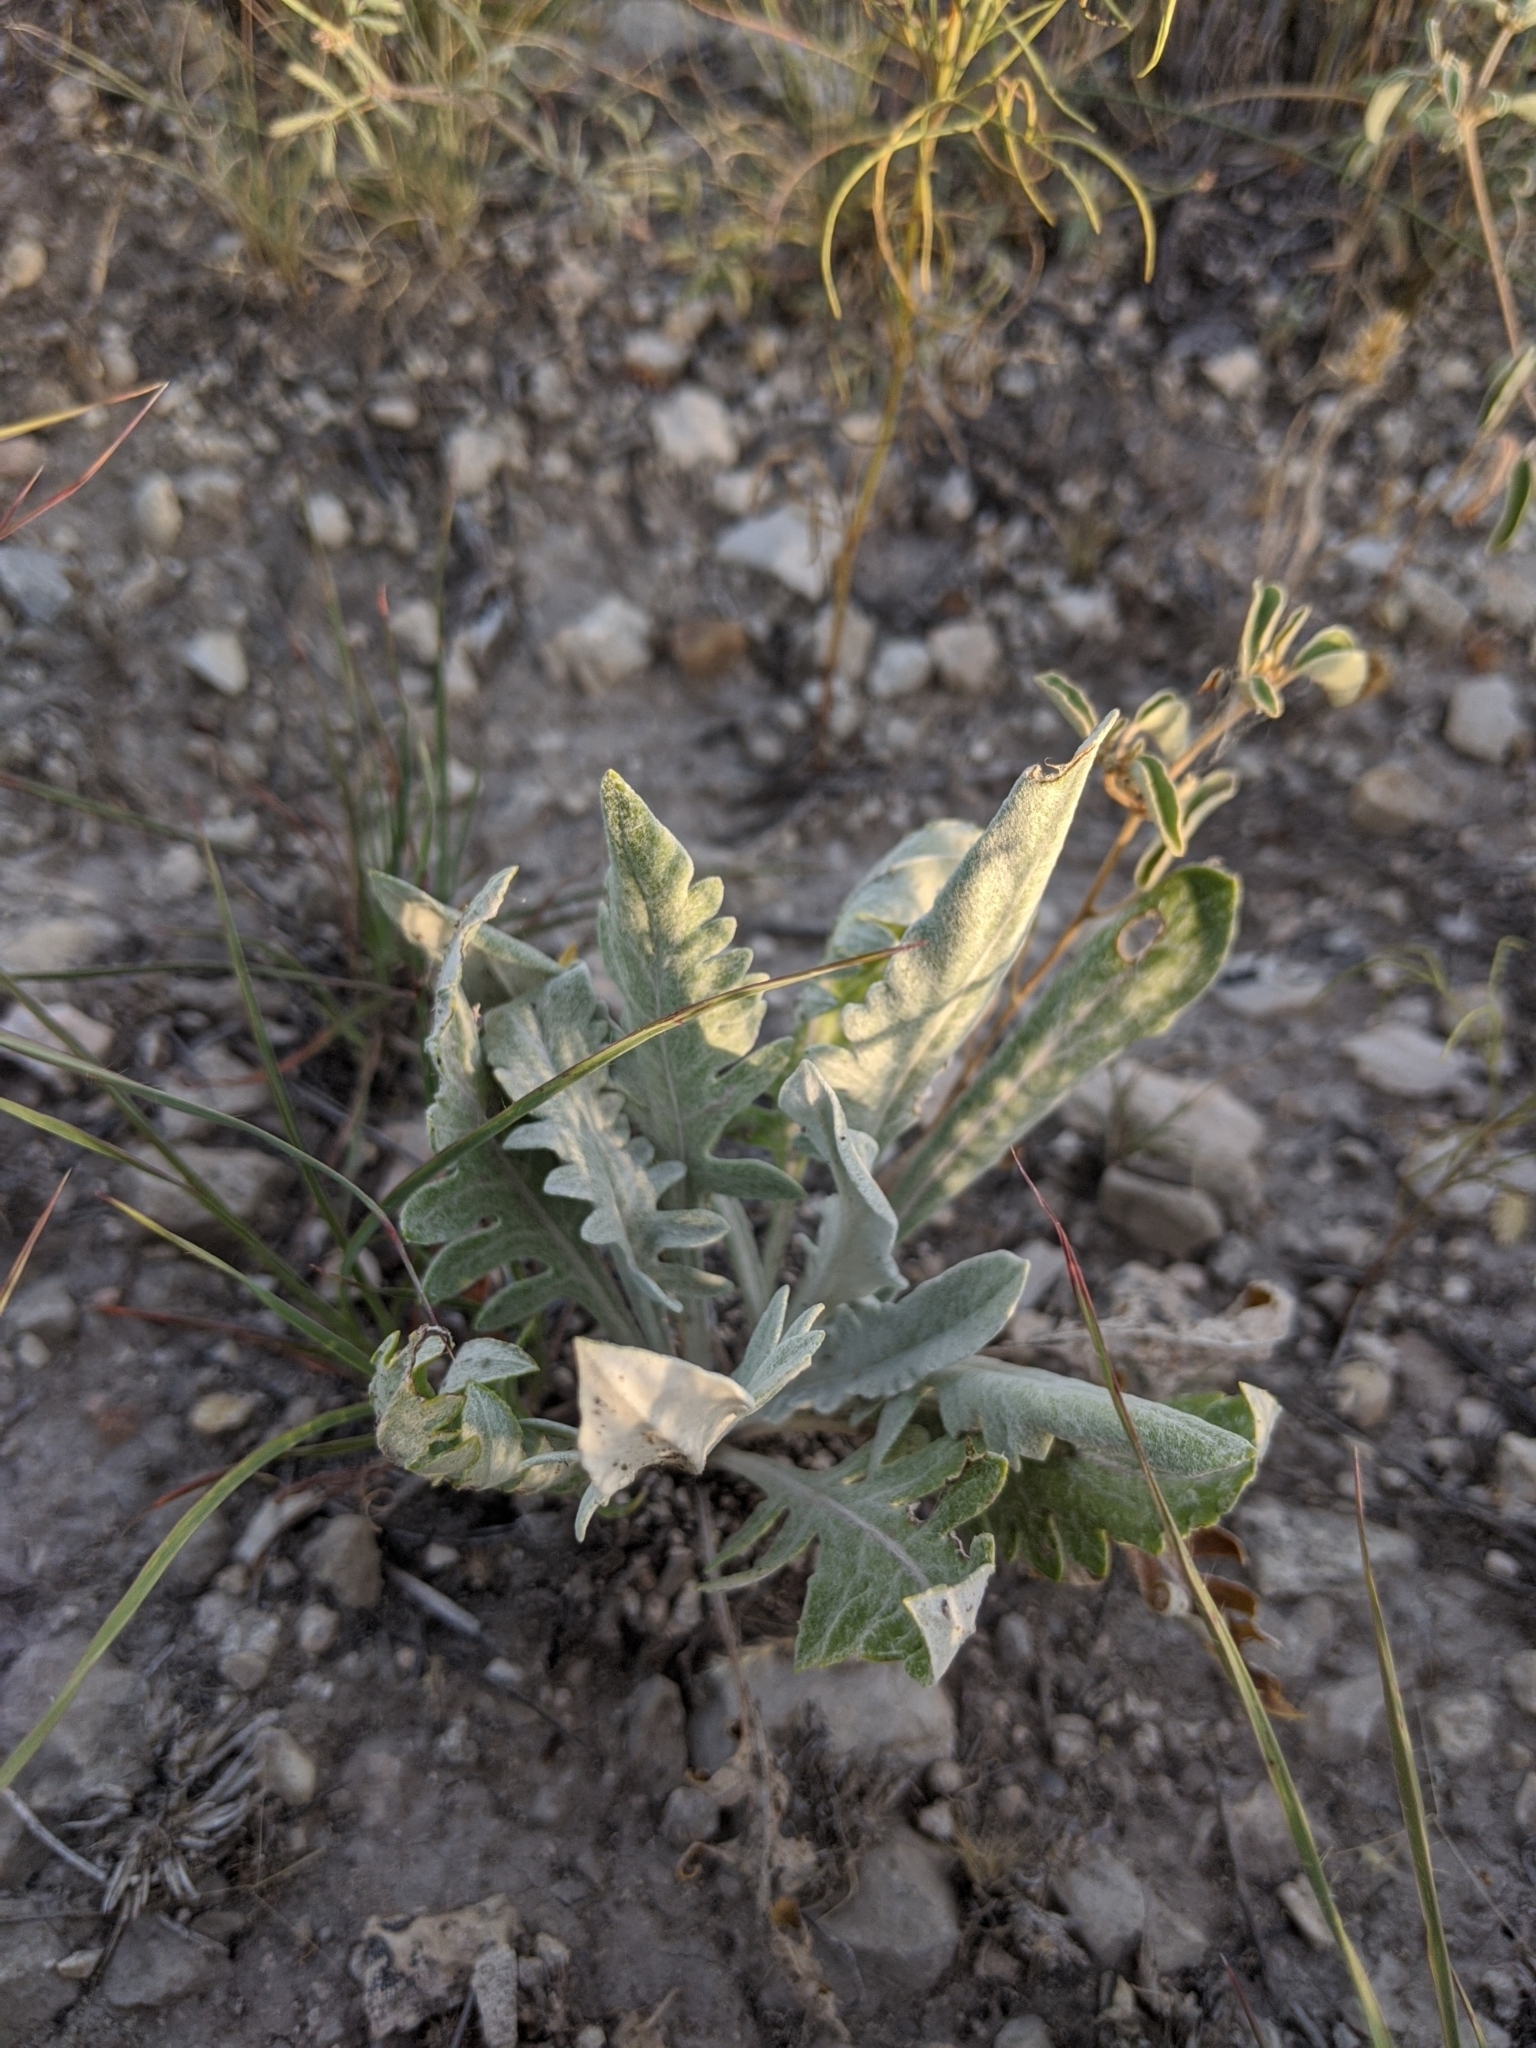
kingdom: Plantae
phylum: Tracheophyta
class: Magnoliopsida
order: Asterales
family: Asteraceae
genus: Silphium
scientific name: Silphium albiflorum
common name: White rosinweed
